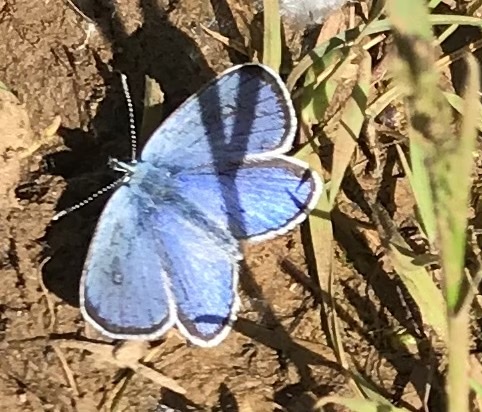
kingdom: Animalia
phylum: Arthropoda
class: Insecta
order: Lepidoptera
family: Lycaenidae
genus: Glaucopsyche
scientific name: Glaucopsyche alexis
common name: Green-underside blue
